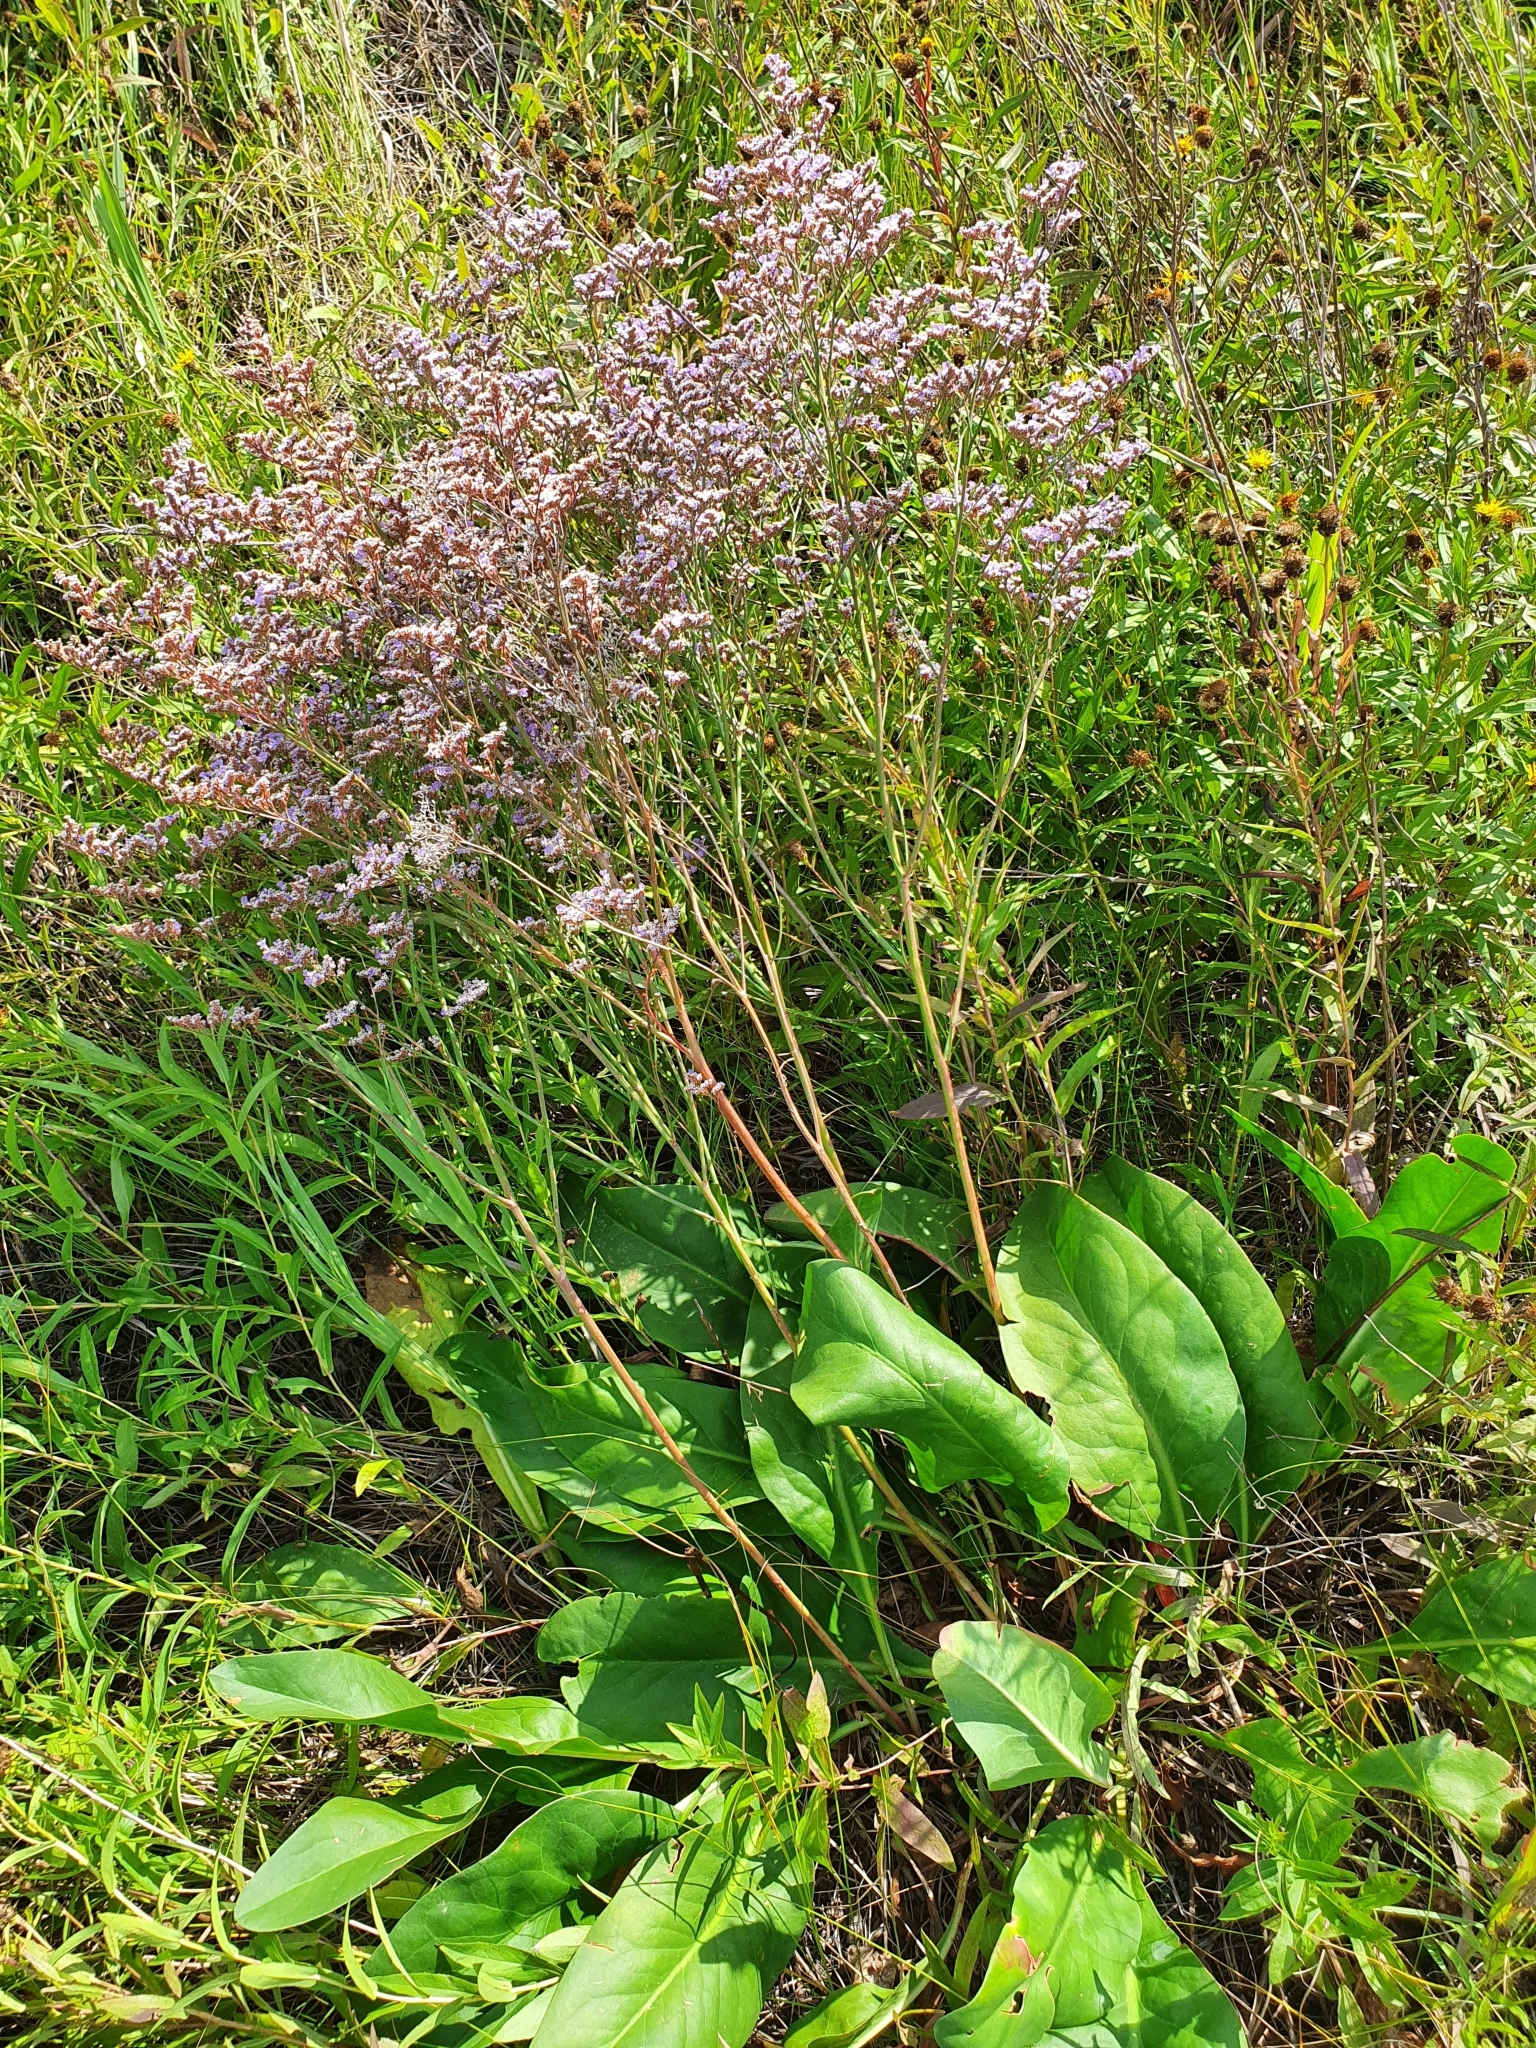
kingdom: Plantae
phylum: Tracheophyta
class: Magnoliopsida
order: Caryophyllales
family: Plumbaginaceae
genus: Limonium
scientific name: Limonium gmelini
